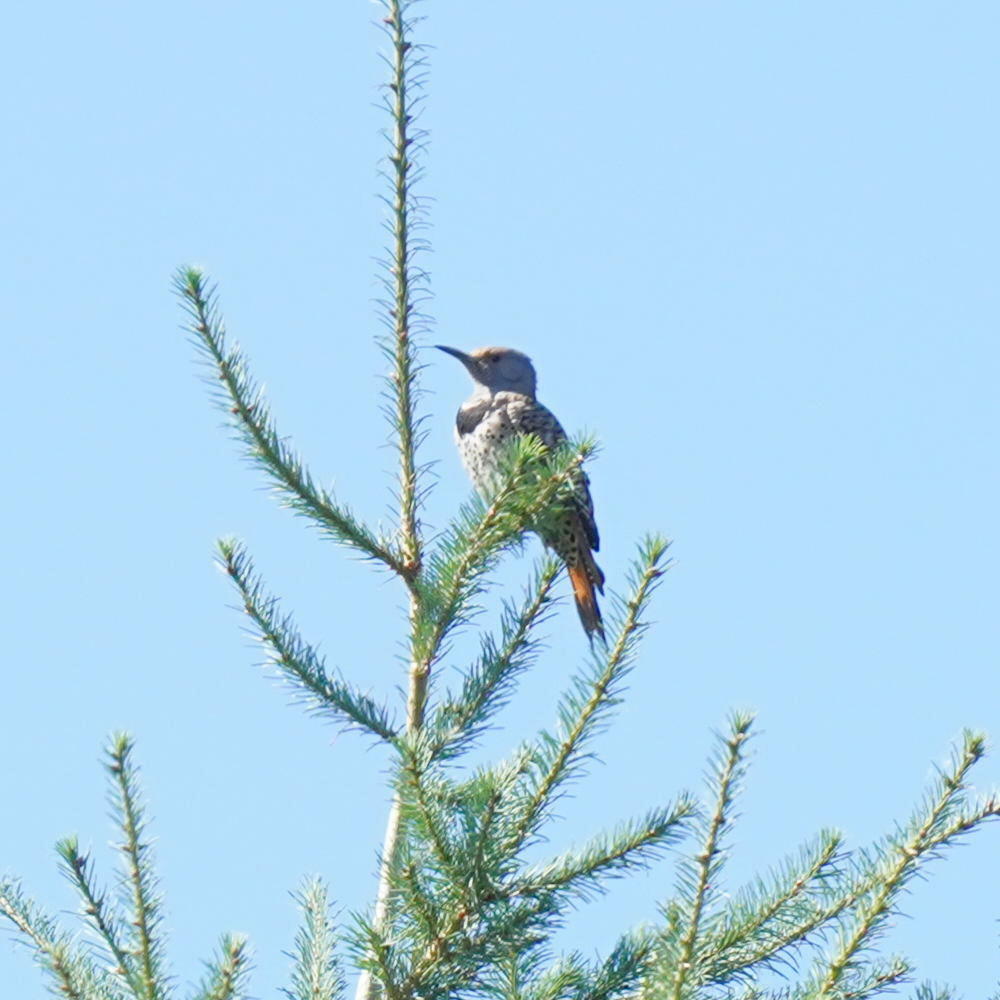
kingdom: Animalia
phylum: Chordata
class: Aves
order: Piciformes
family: Picidae
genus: Colaptes
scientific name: Colaptes auratus
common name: Northern flicker
